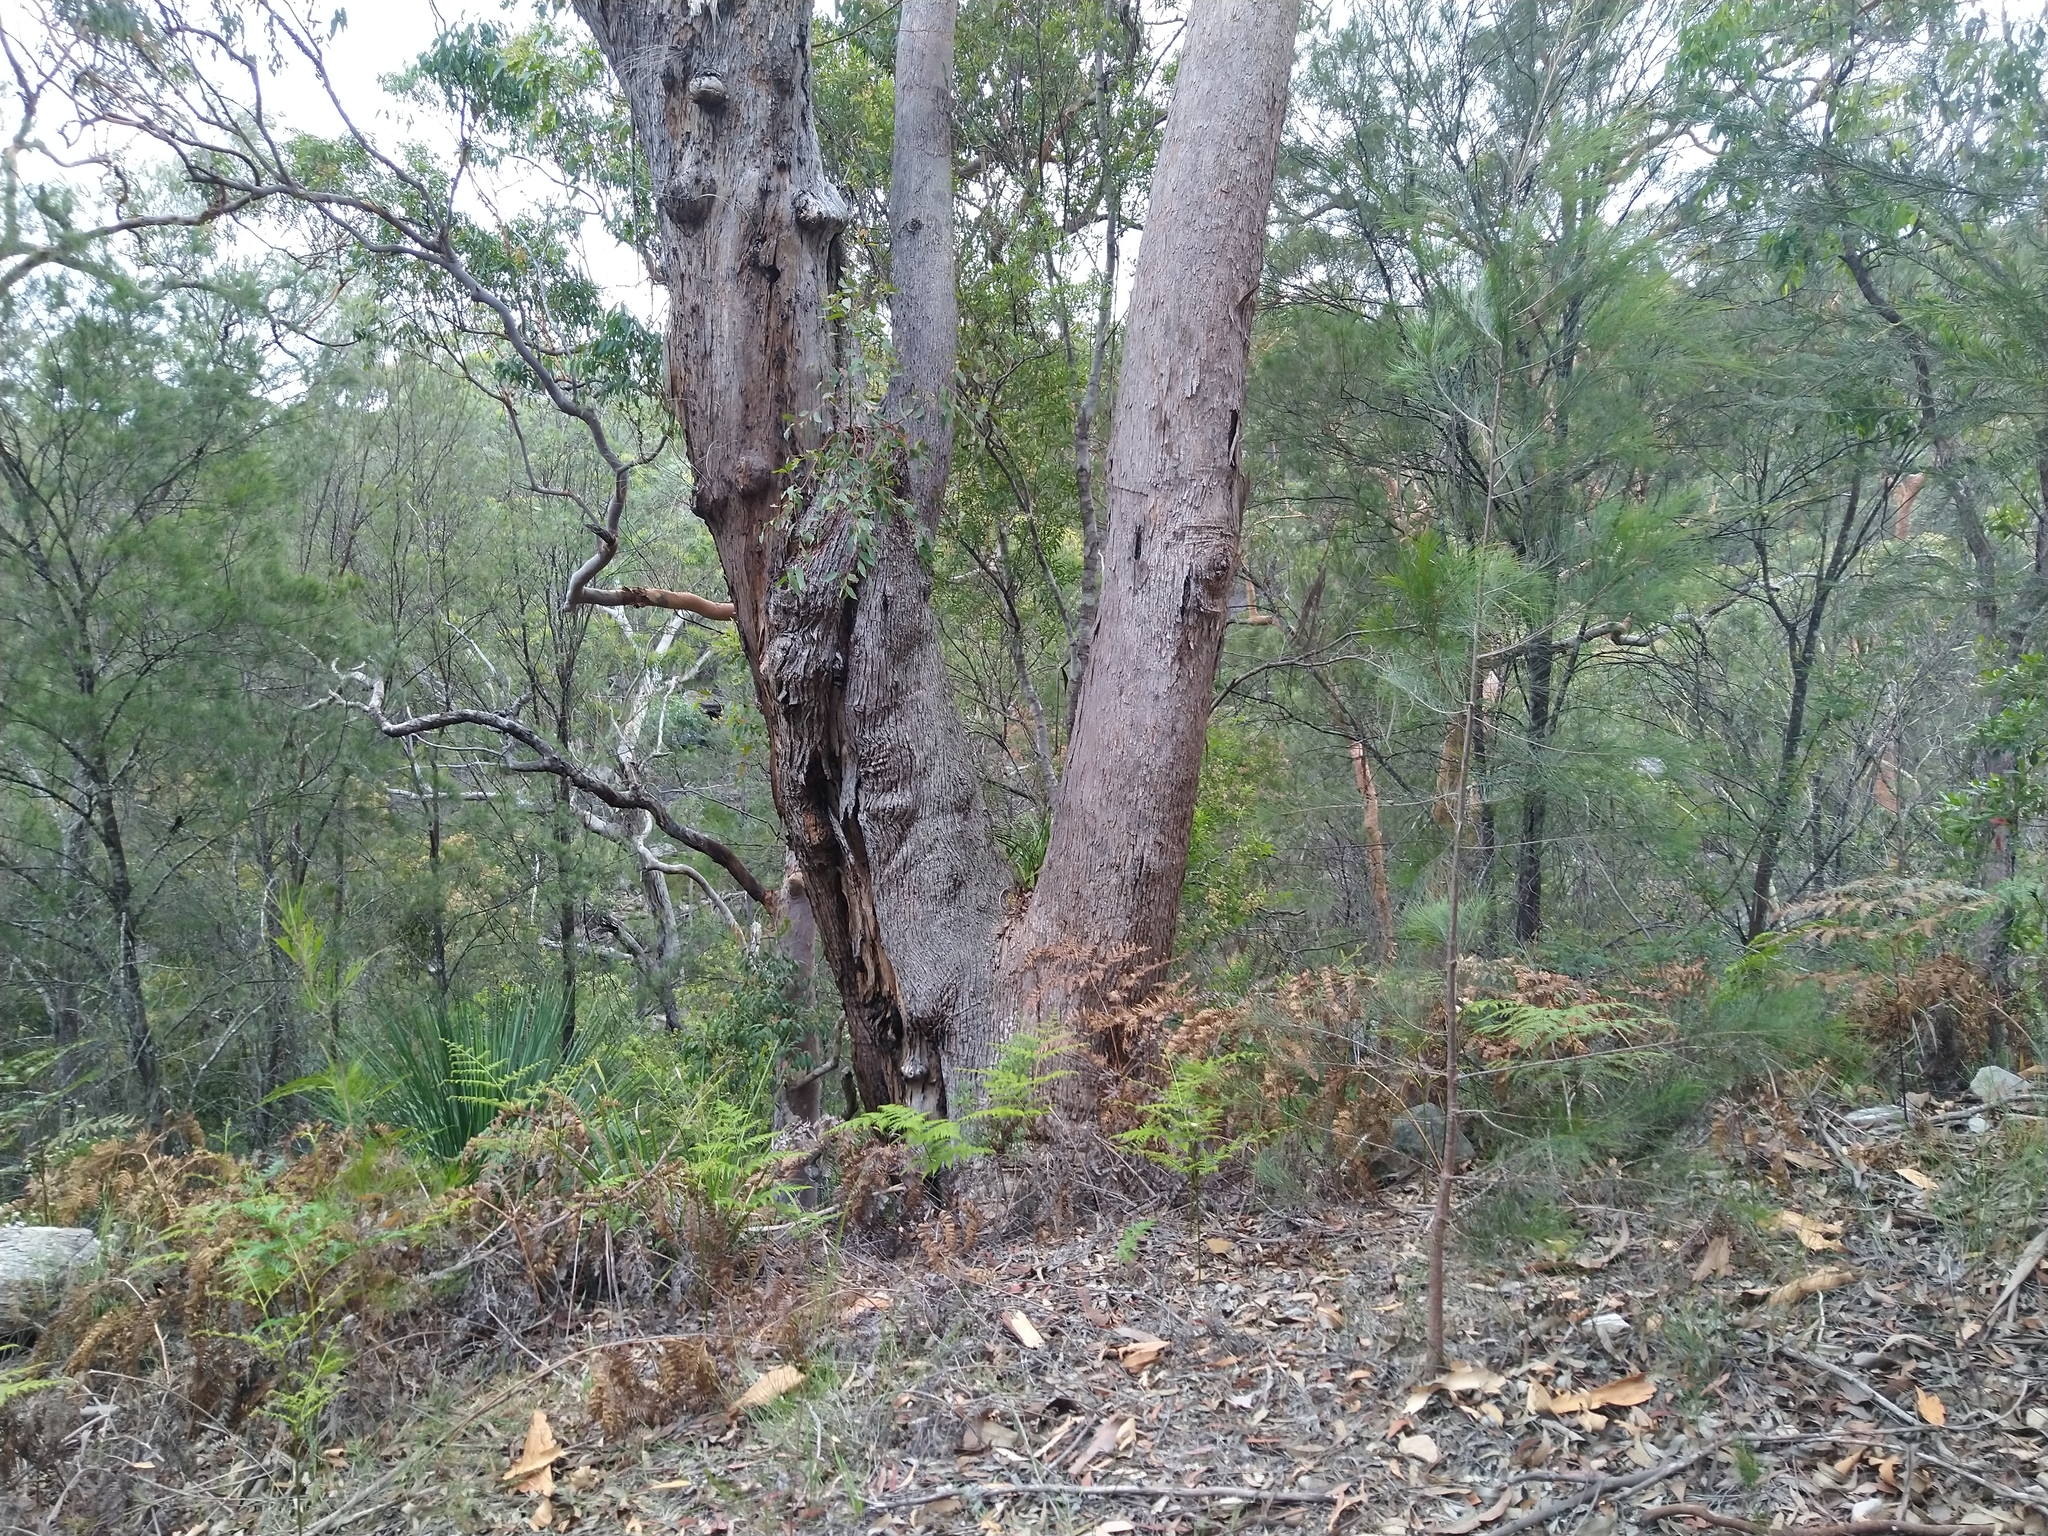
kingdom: Plantae
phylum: Tracheophyta
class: Liliopsida
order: Asparagales
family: Orchidaceae
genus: Cymbidium
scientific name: Cymbidium suave
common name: Snake orchid
